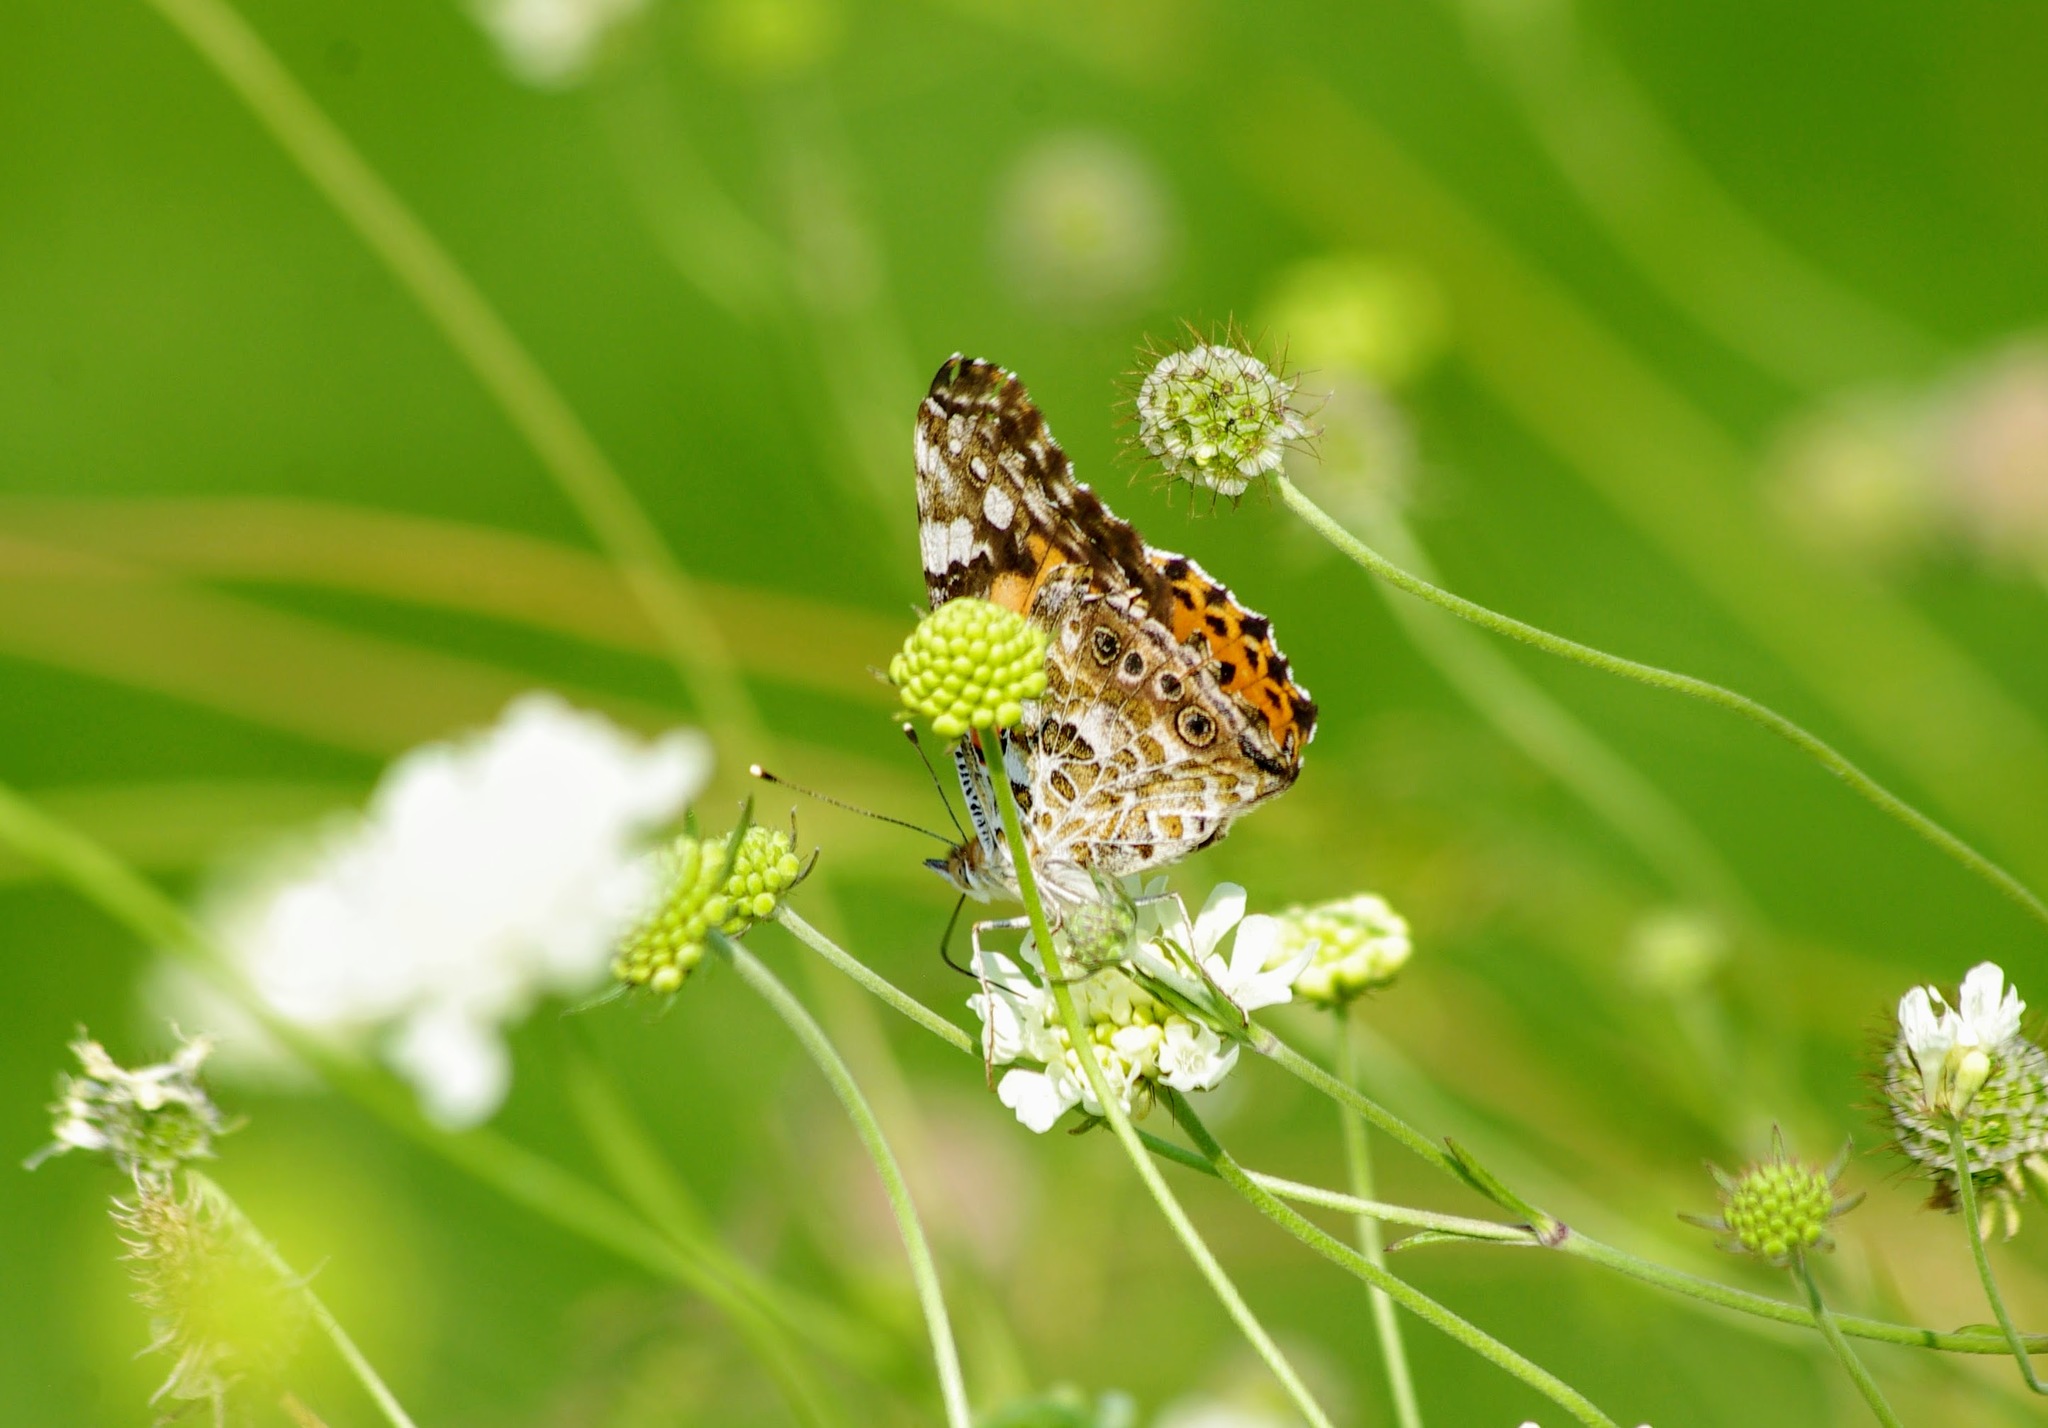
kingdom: Animalia
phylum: Arthropoda
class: Insecta
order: Lepidoptera
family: Nymphalidae
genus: Vanessa
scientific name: Vanessa cardui
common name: Painted lady
